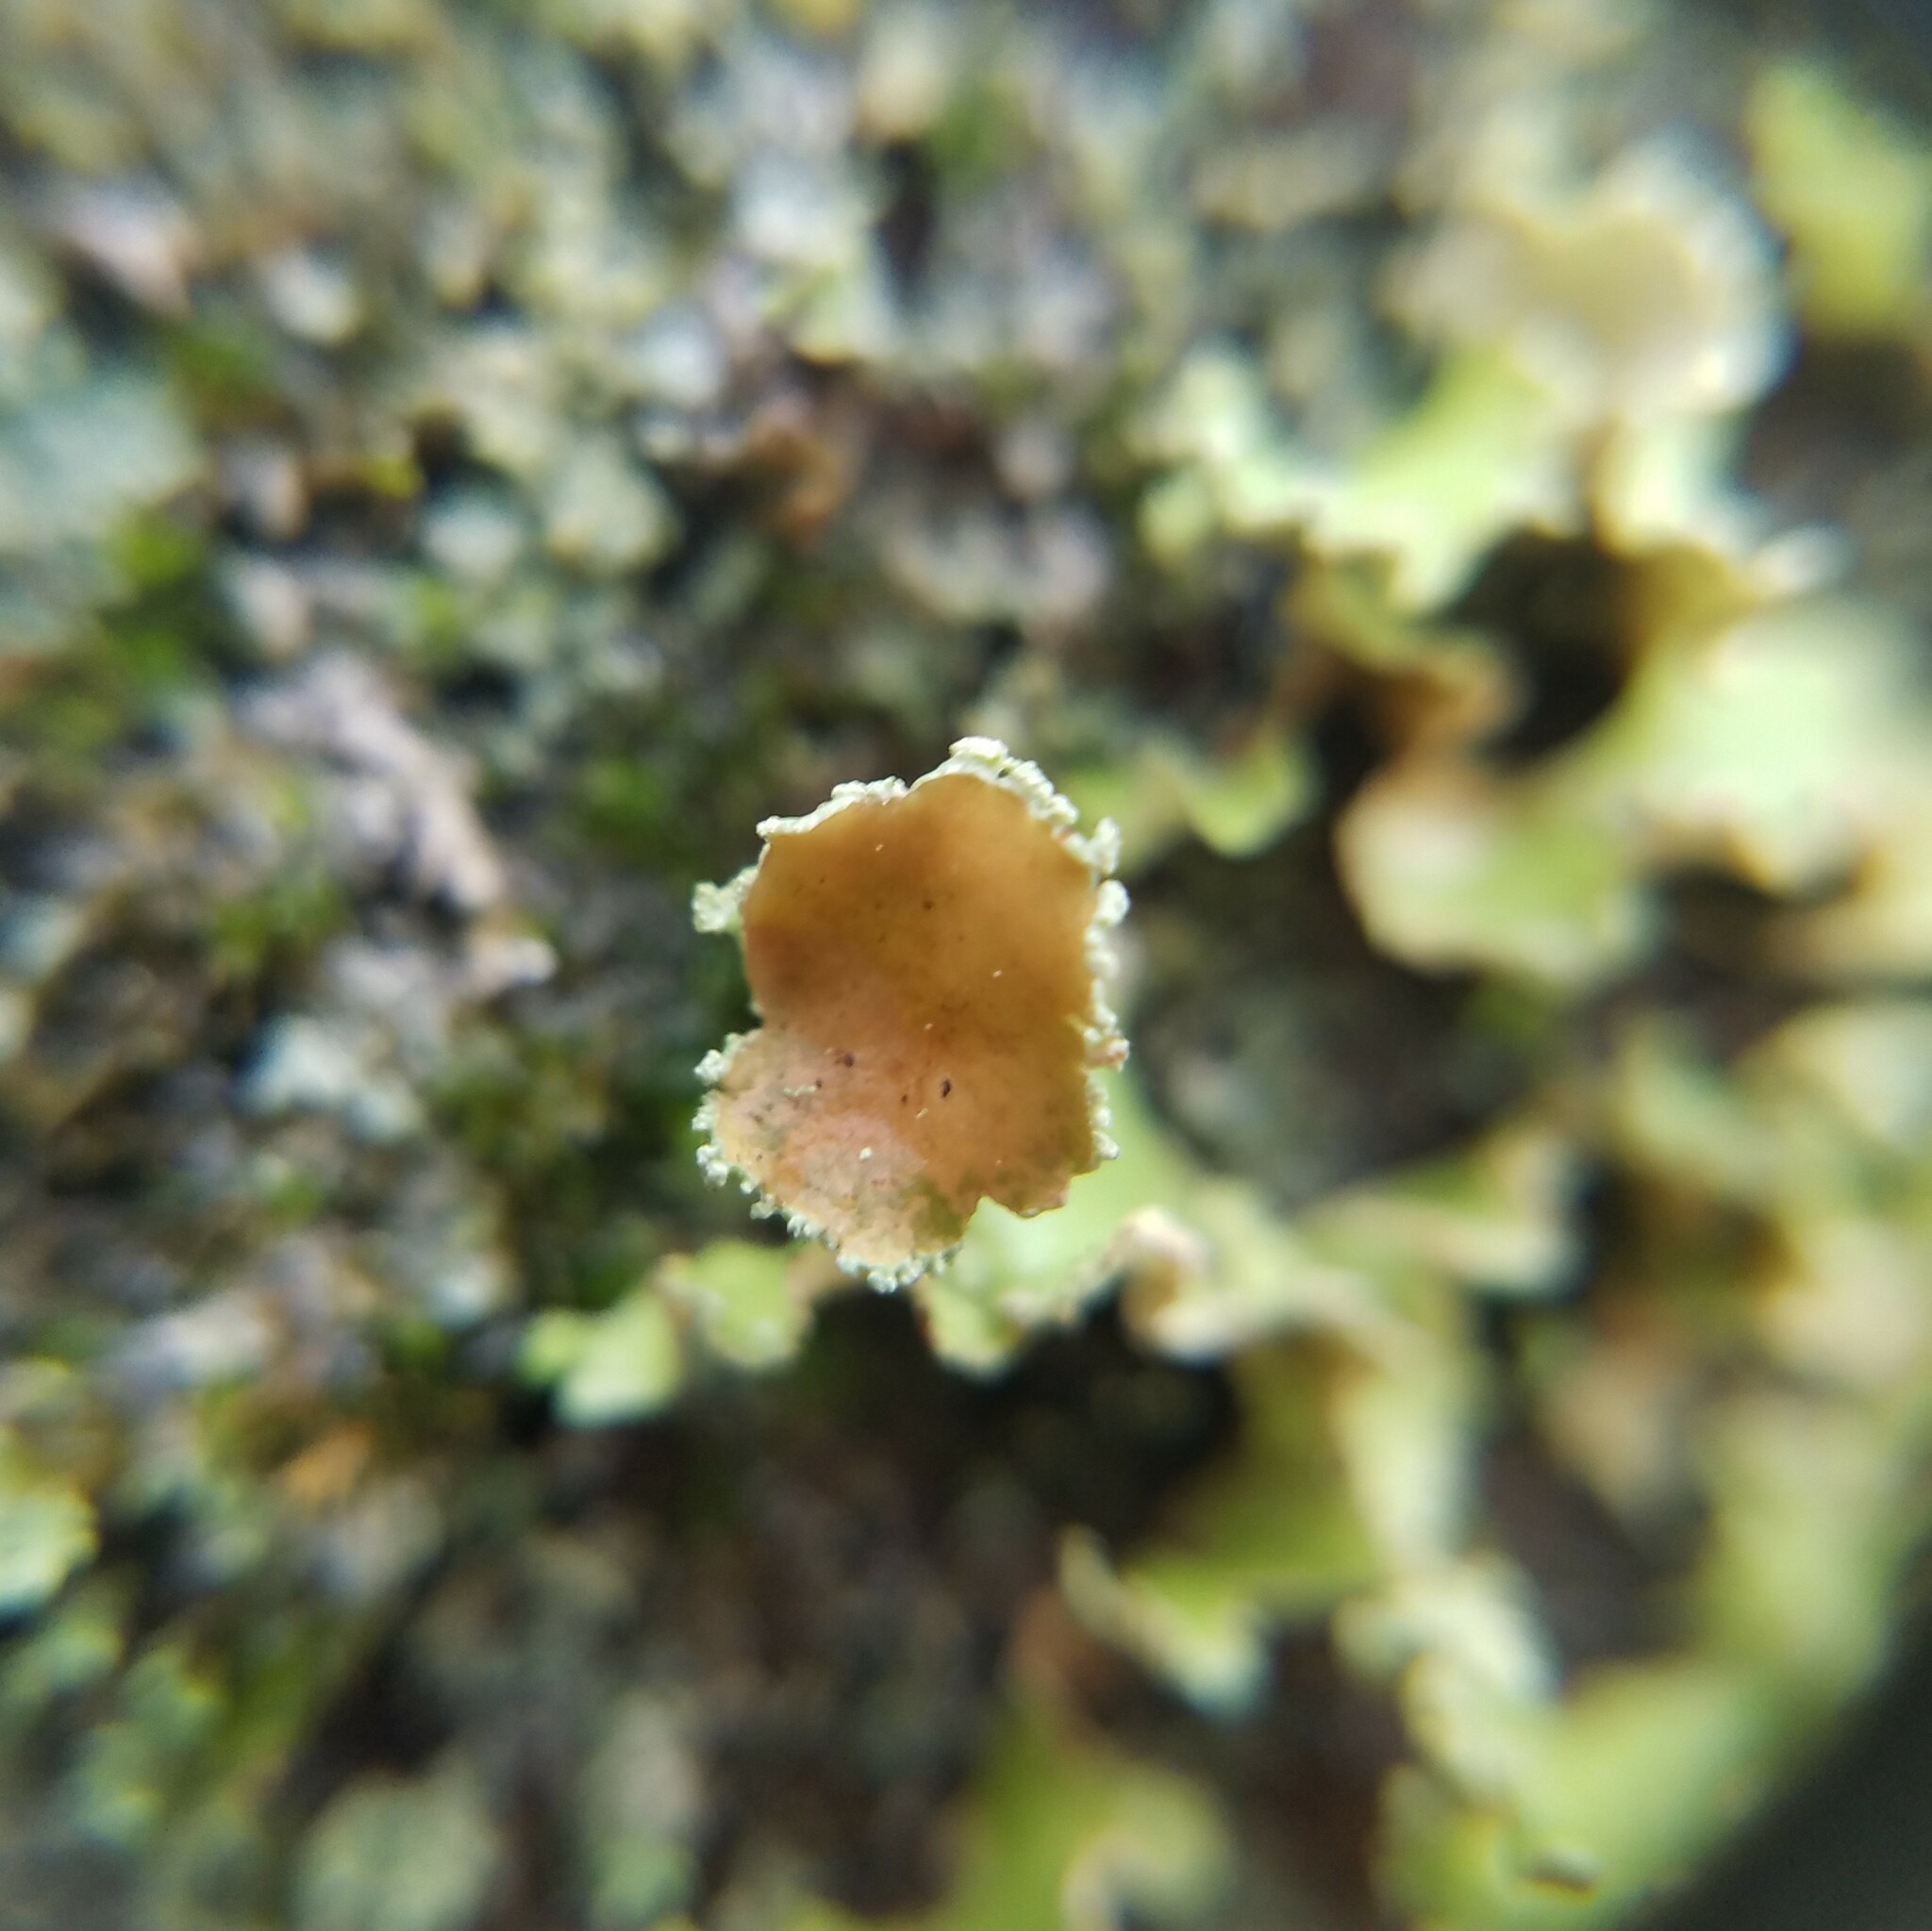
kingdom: Fungi
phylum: Ascomycota
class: Lecanoromycetes
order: Lecanorales
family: Parmeliaceae
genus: Usnocetraria
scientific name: Usnocetraria oakesiana
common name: Yellow ribbon lichen
